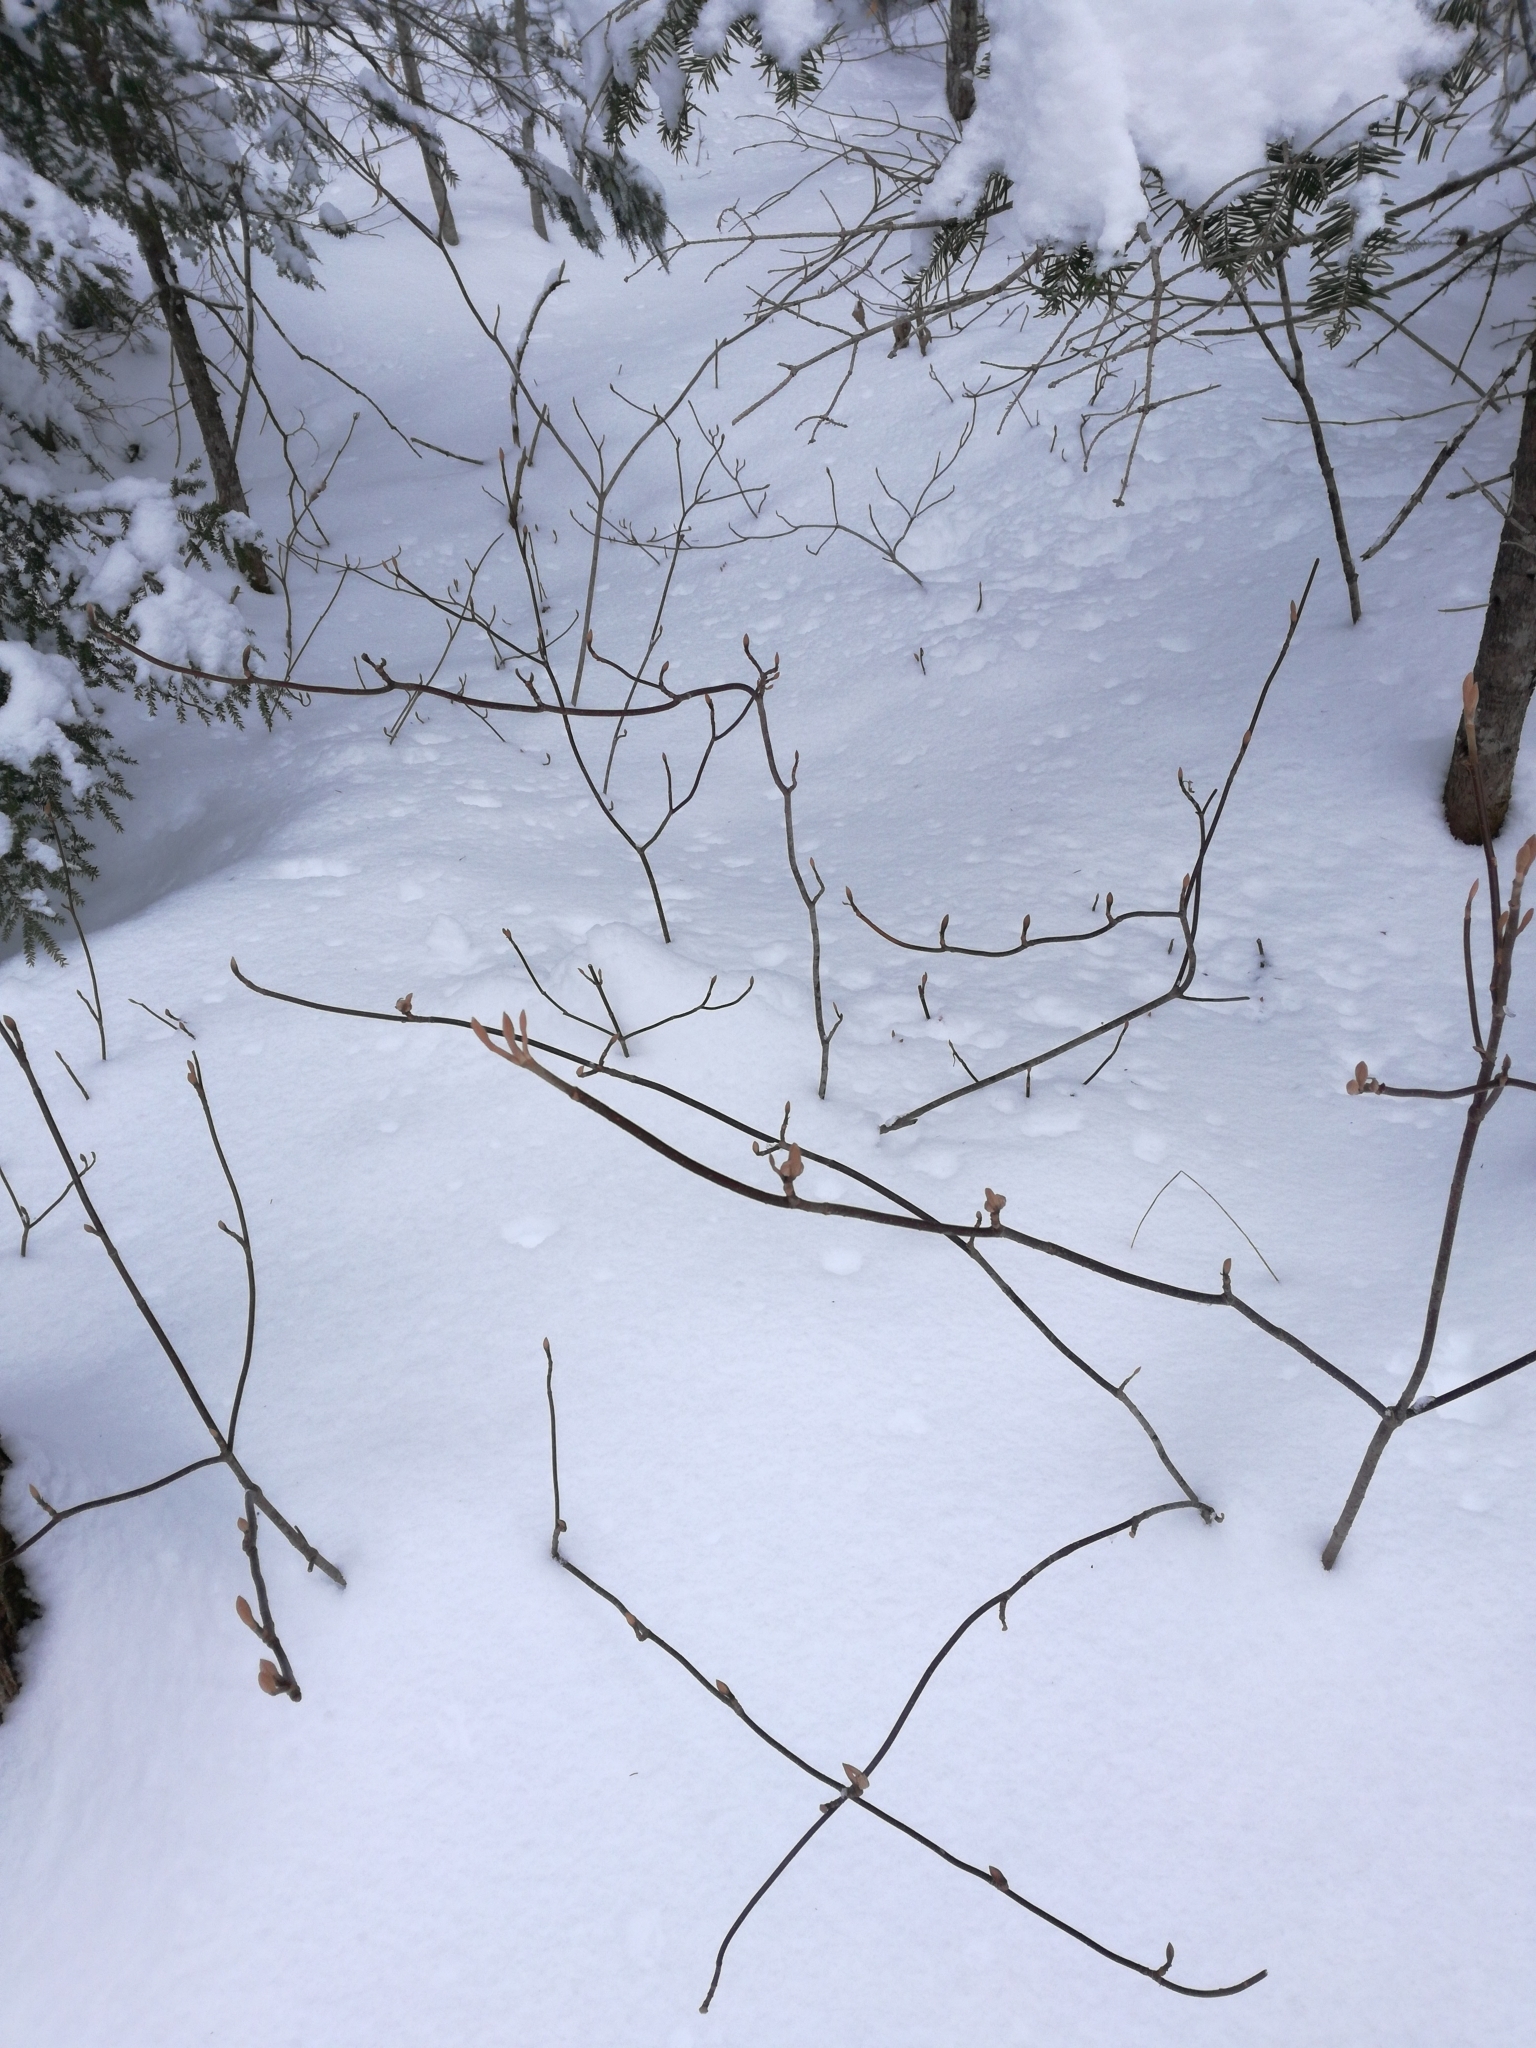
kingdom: Plantae
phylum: Tracheophyta
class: Magnoliopsida
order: Dipsacales
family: Viburnaceae
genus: Viburnum
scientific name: Viburnum lantanoides
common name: Hobblebush
